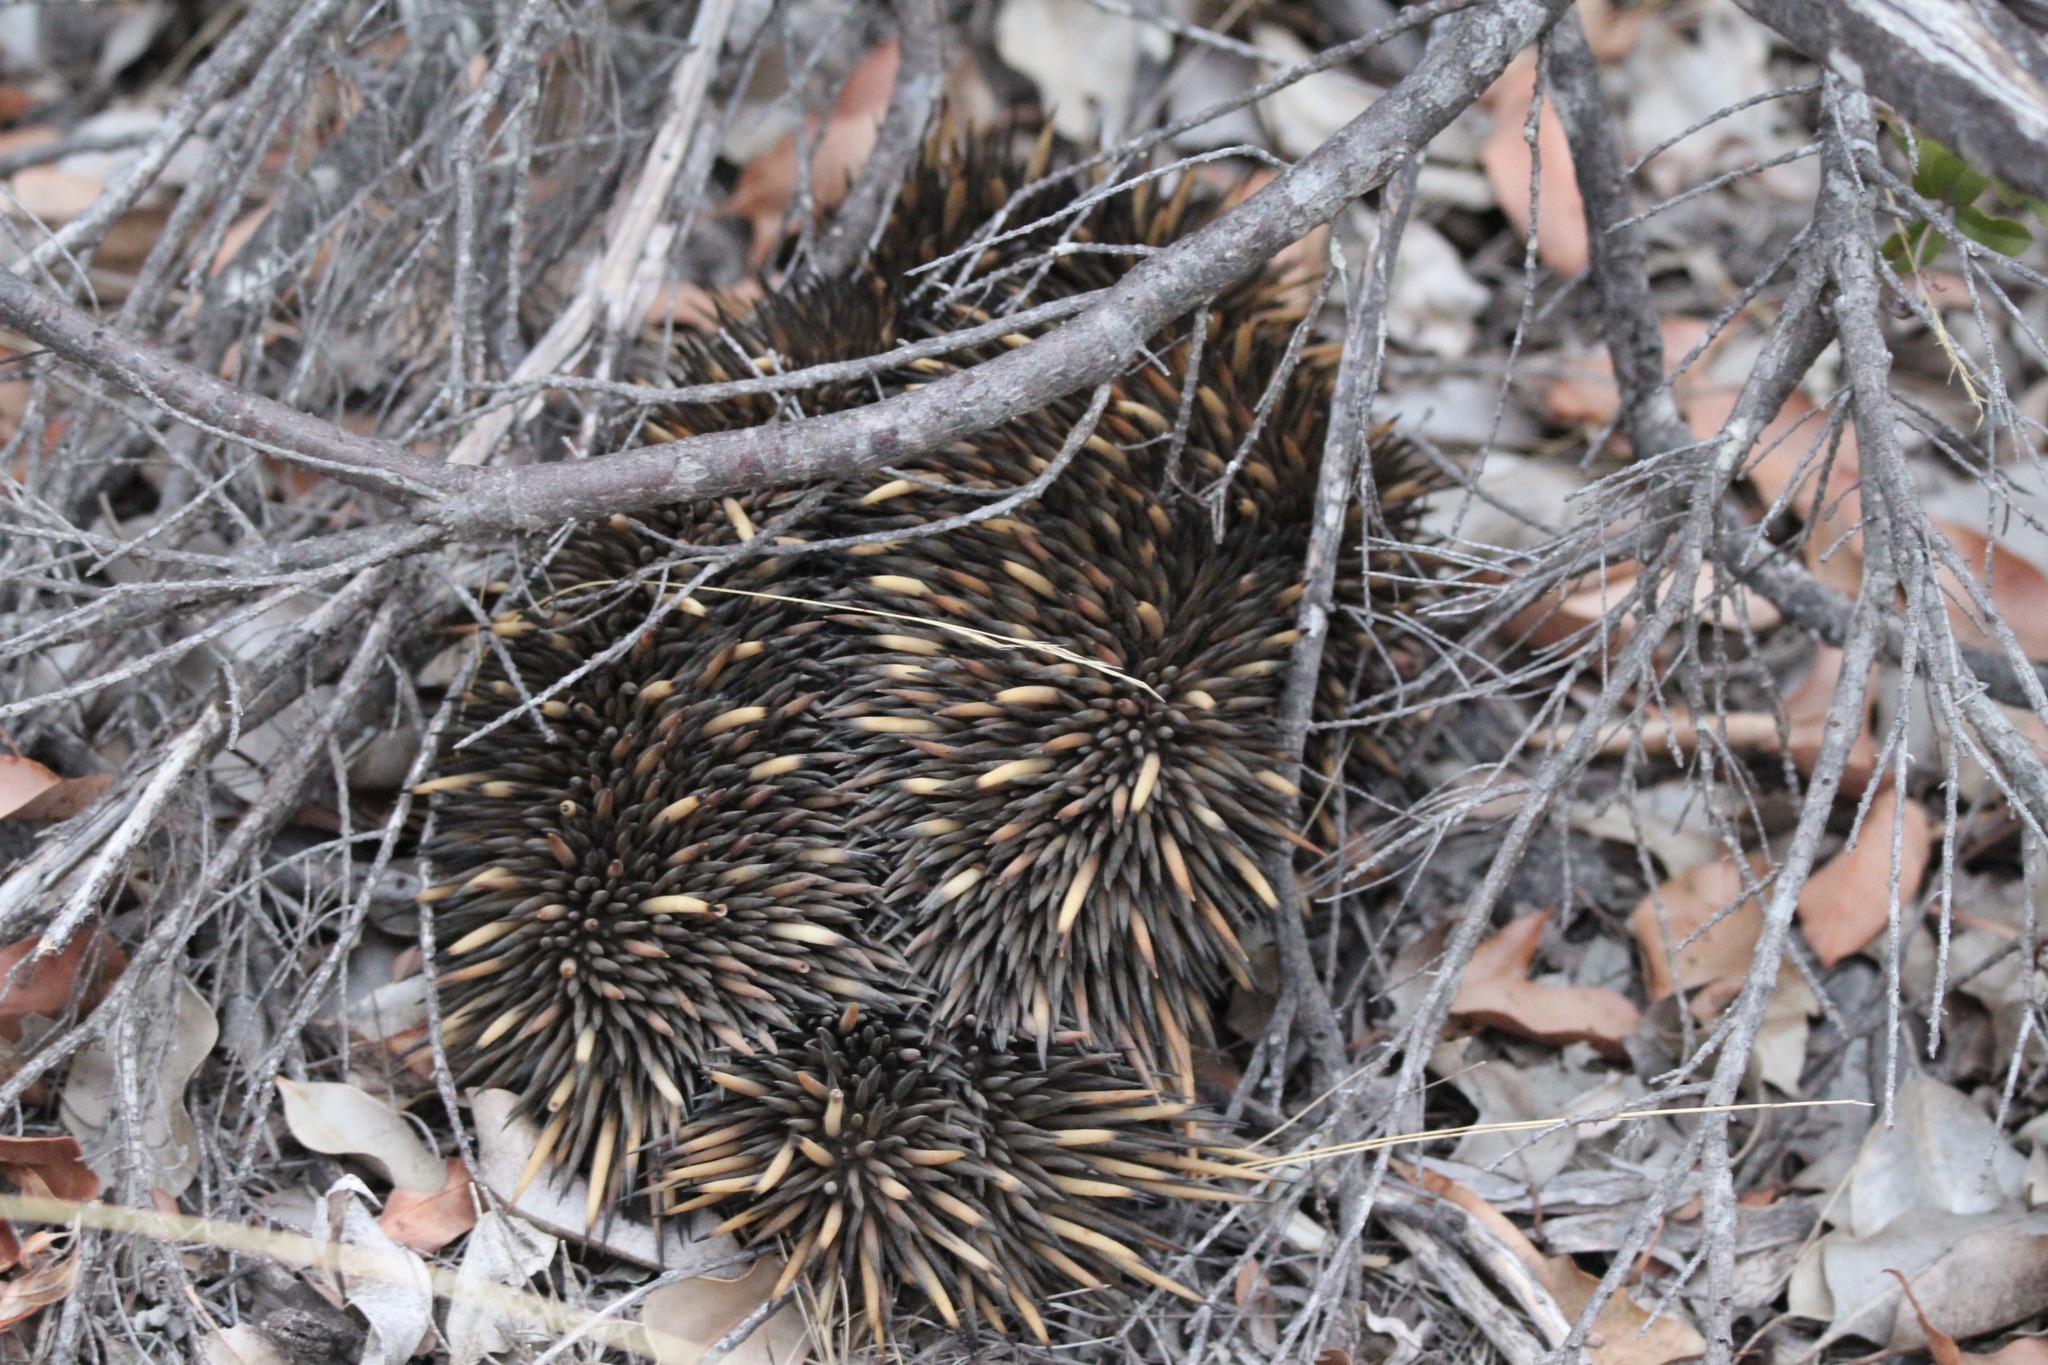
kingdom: Animalia
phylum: Chordata
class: Mammalia
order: Monotremata
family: Tachyglossidae
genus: Tachyglossus
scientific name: Tachyglossus aculeatus
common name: Short-beaked echidna
